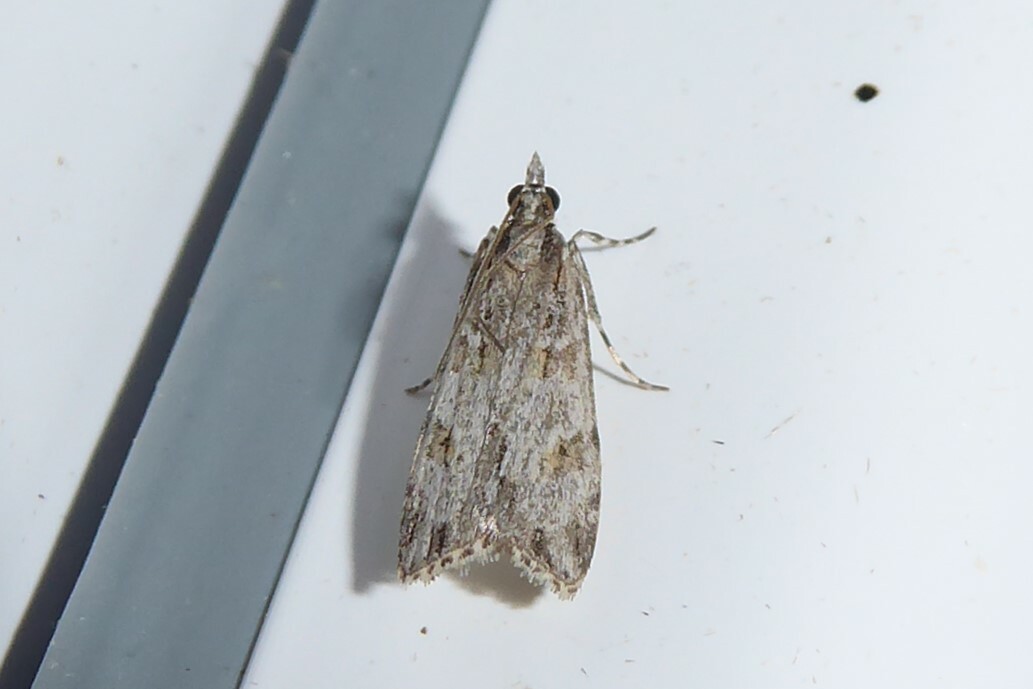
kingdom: Animalia
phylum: Arthropoda
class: Insecta
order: Lepidoptera
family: Crambidae
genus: Scoparia
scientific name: Scoparia chalicodes
